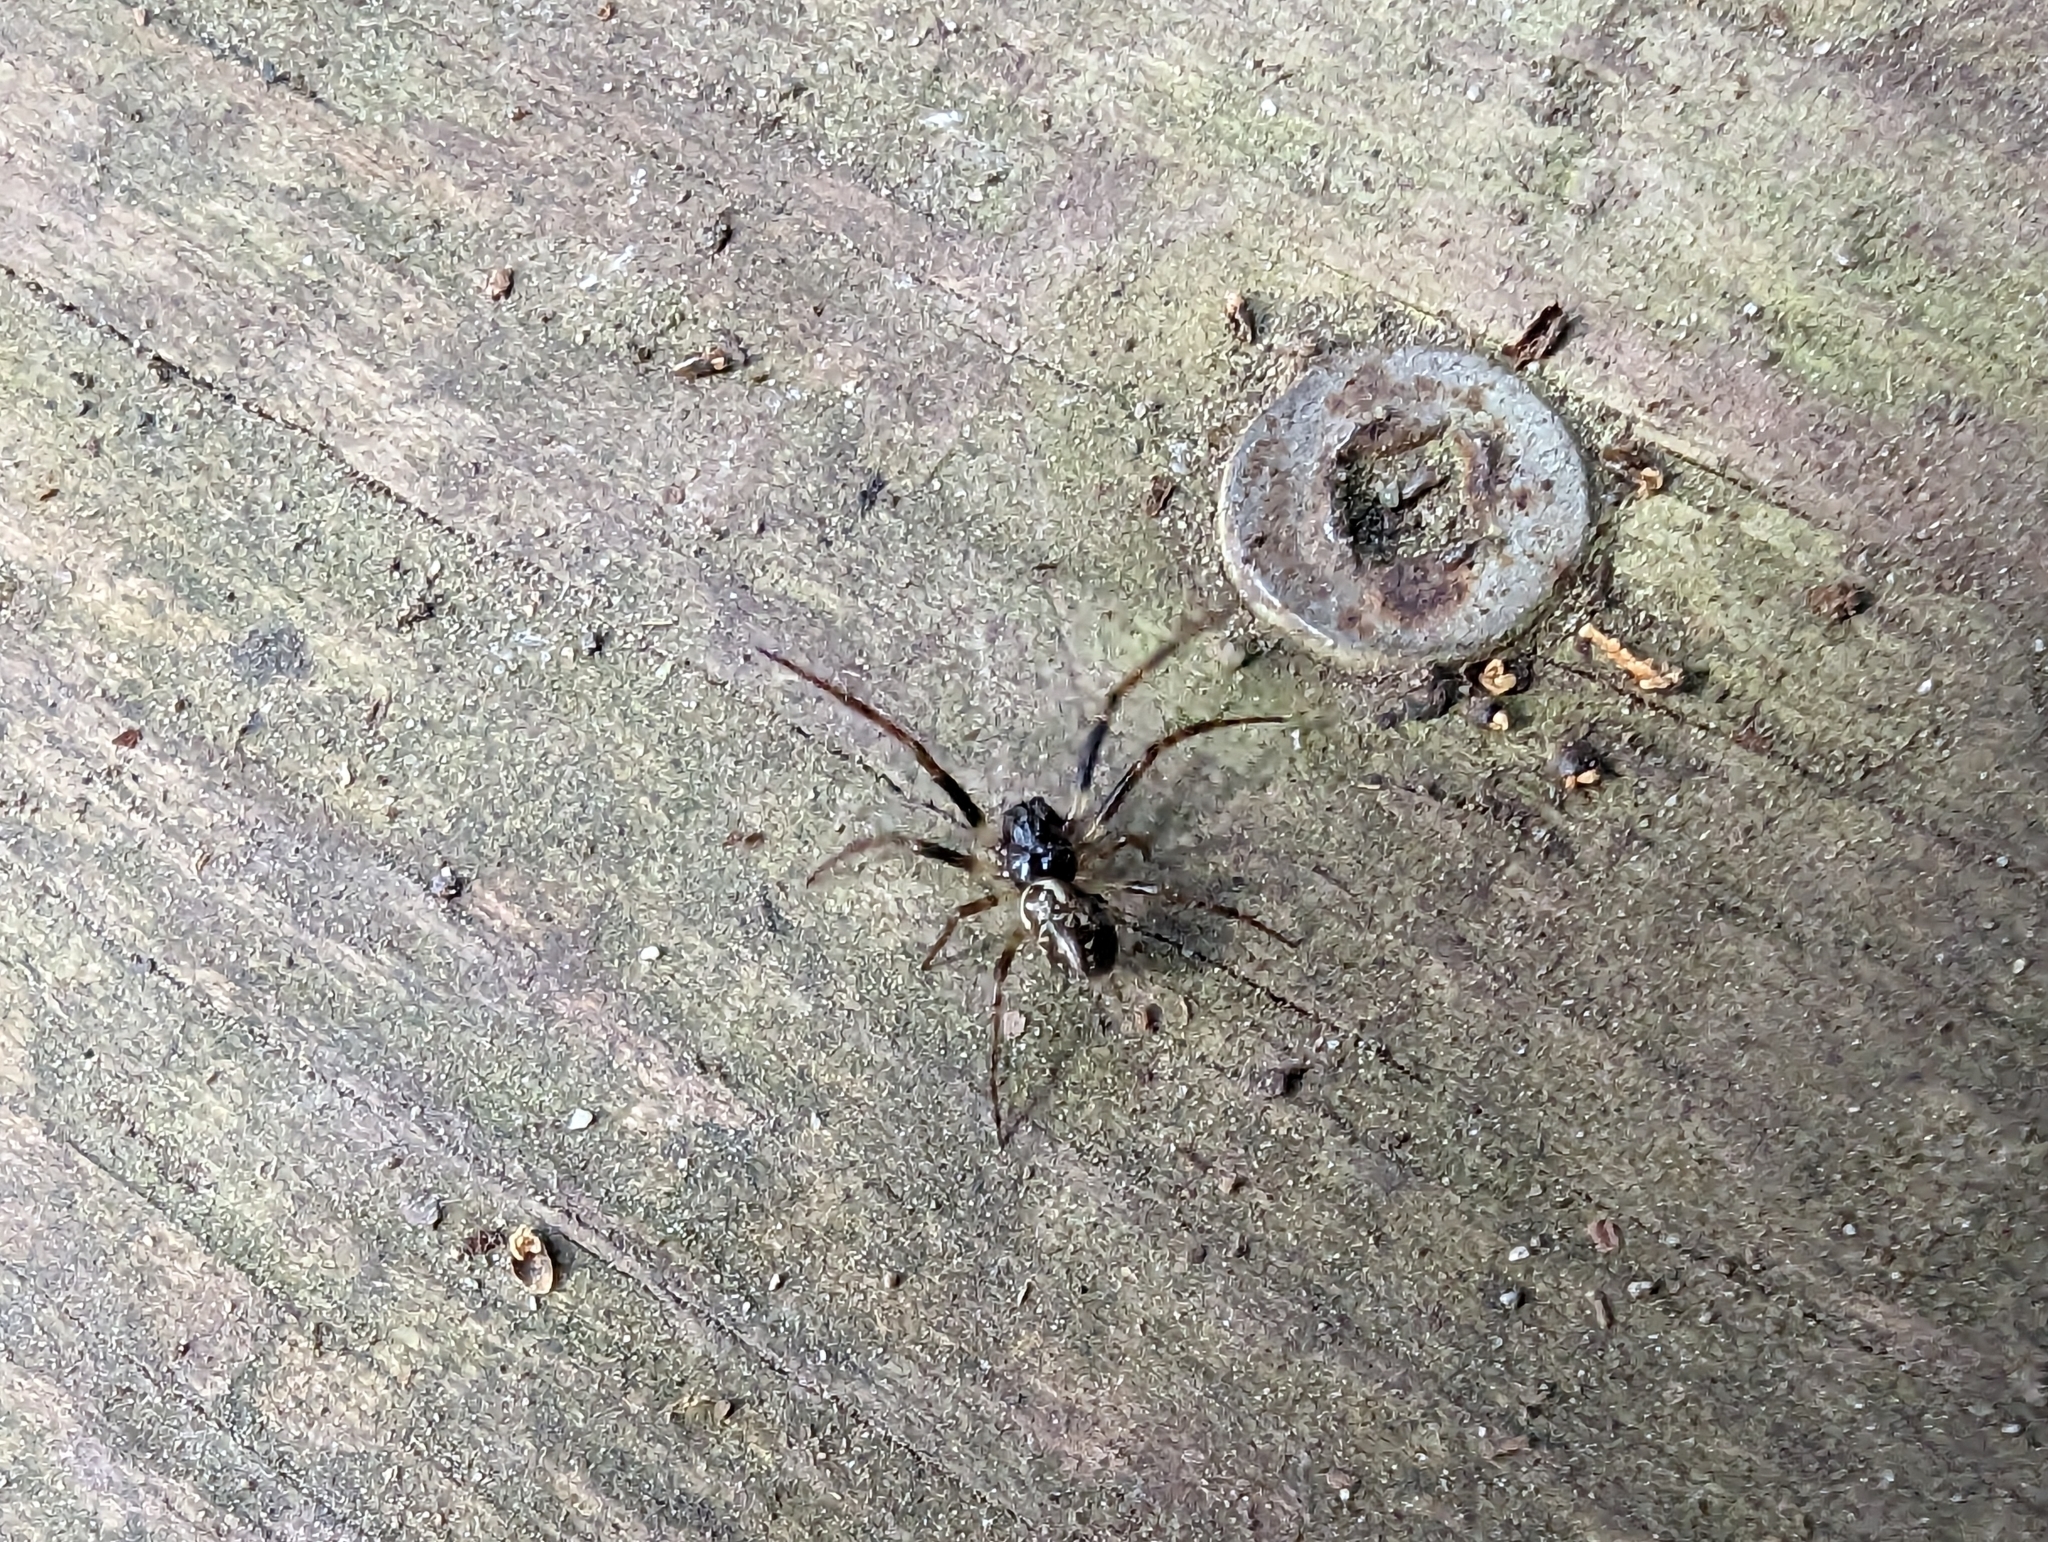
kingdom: Animalia
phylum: Arthropoda
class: Arachnida
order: Araneae
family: Araneidae
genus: Cyclosa
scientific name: Cyclosa conica
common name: Conical trashline orbweaver
